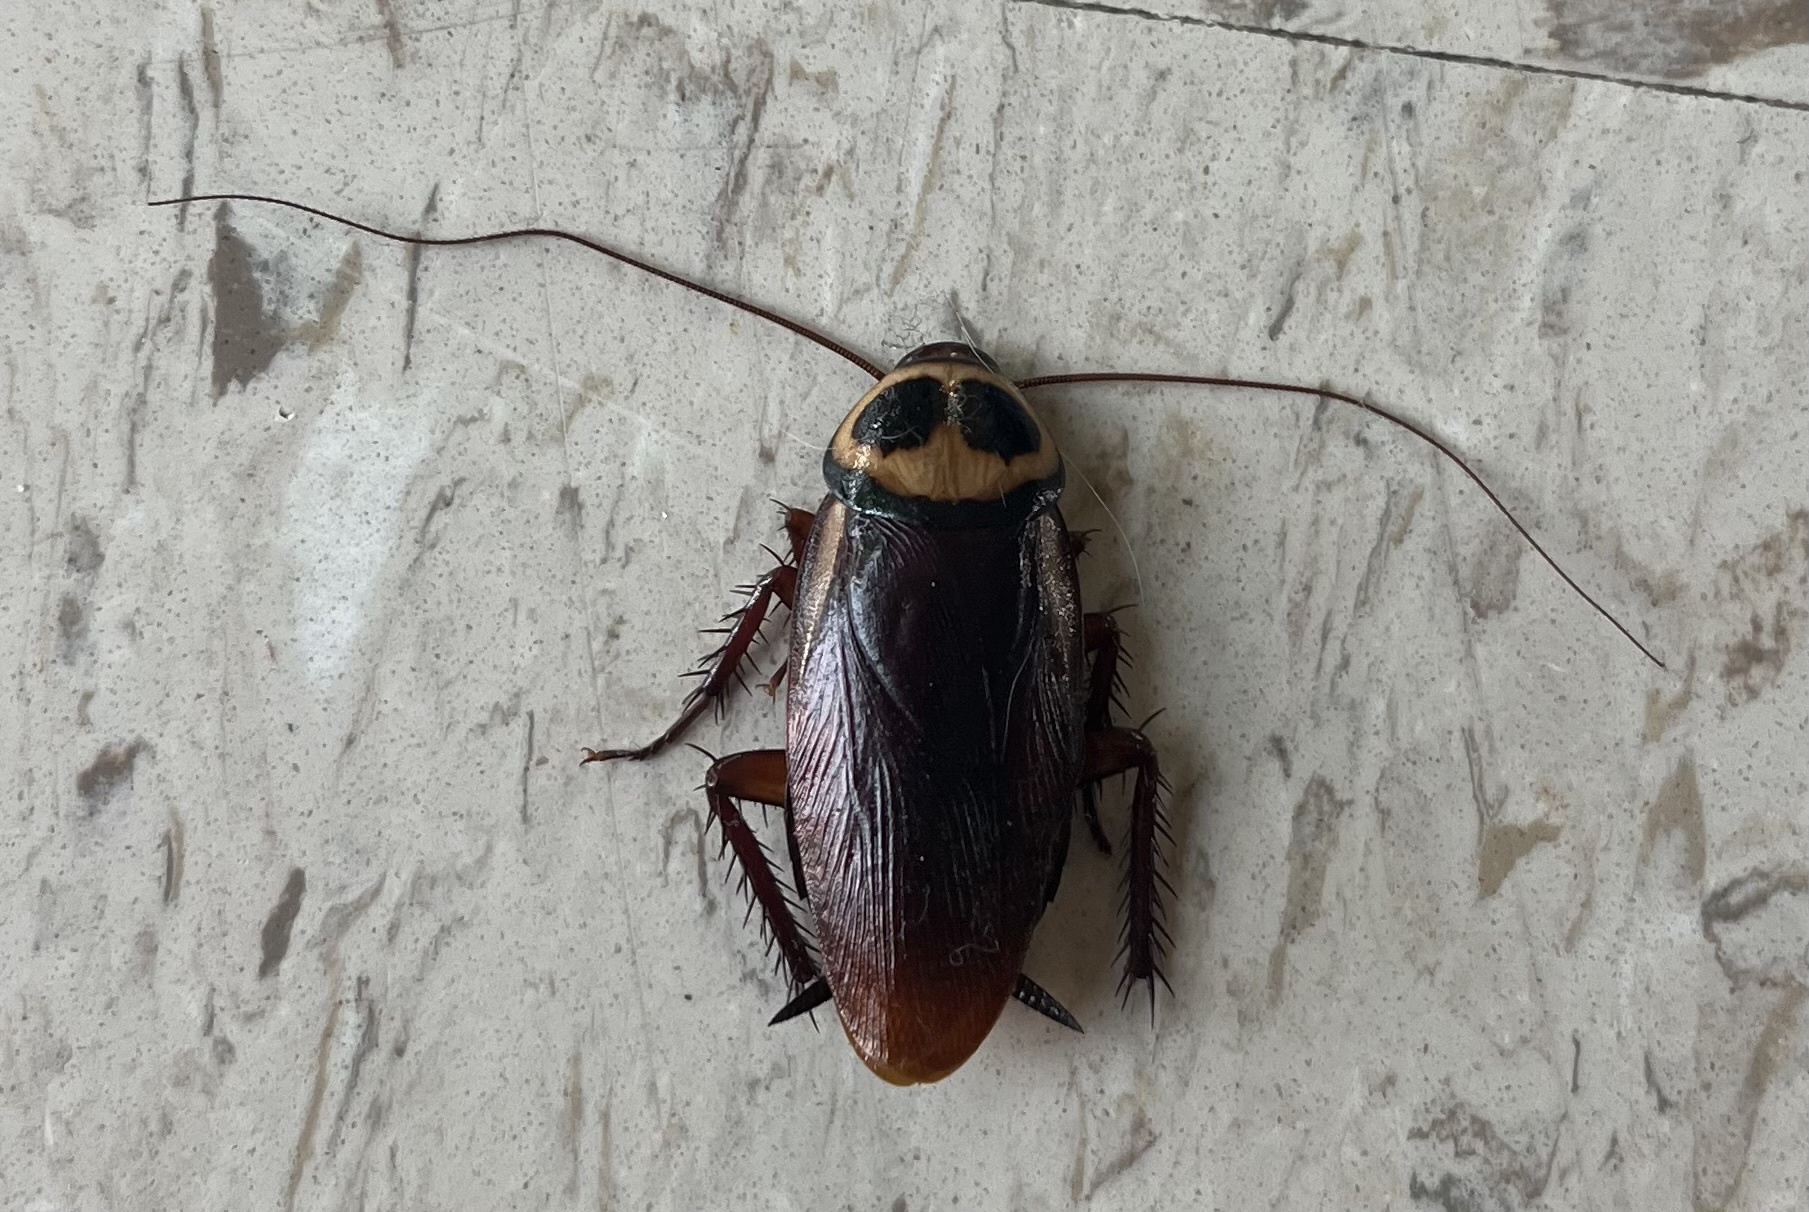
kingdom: Animalia
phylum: Arthropoda
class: Insecta
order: Blattodea
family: Blattidae
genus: Periplaneta
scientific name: Periplaneta australasiae
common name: Australian cockroach
